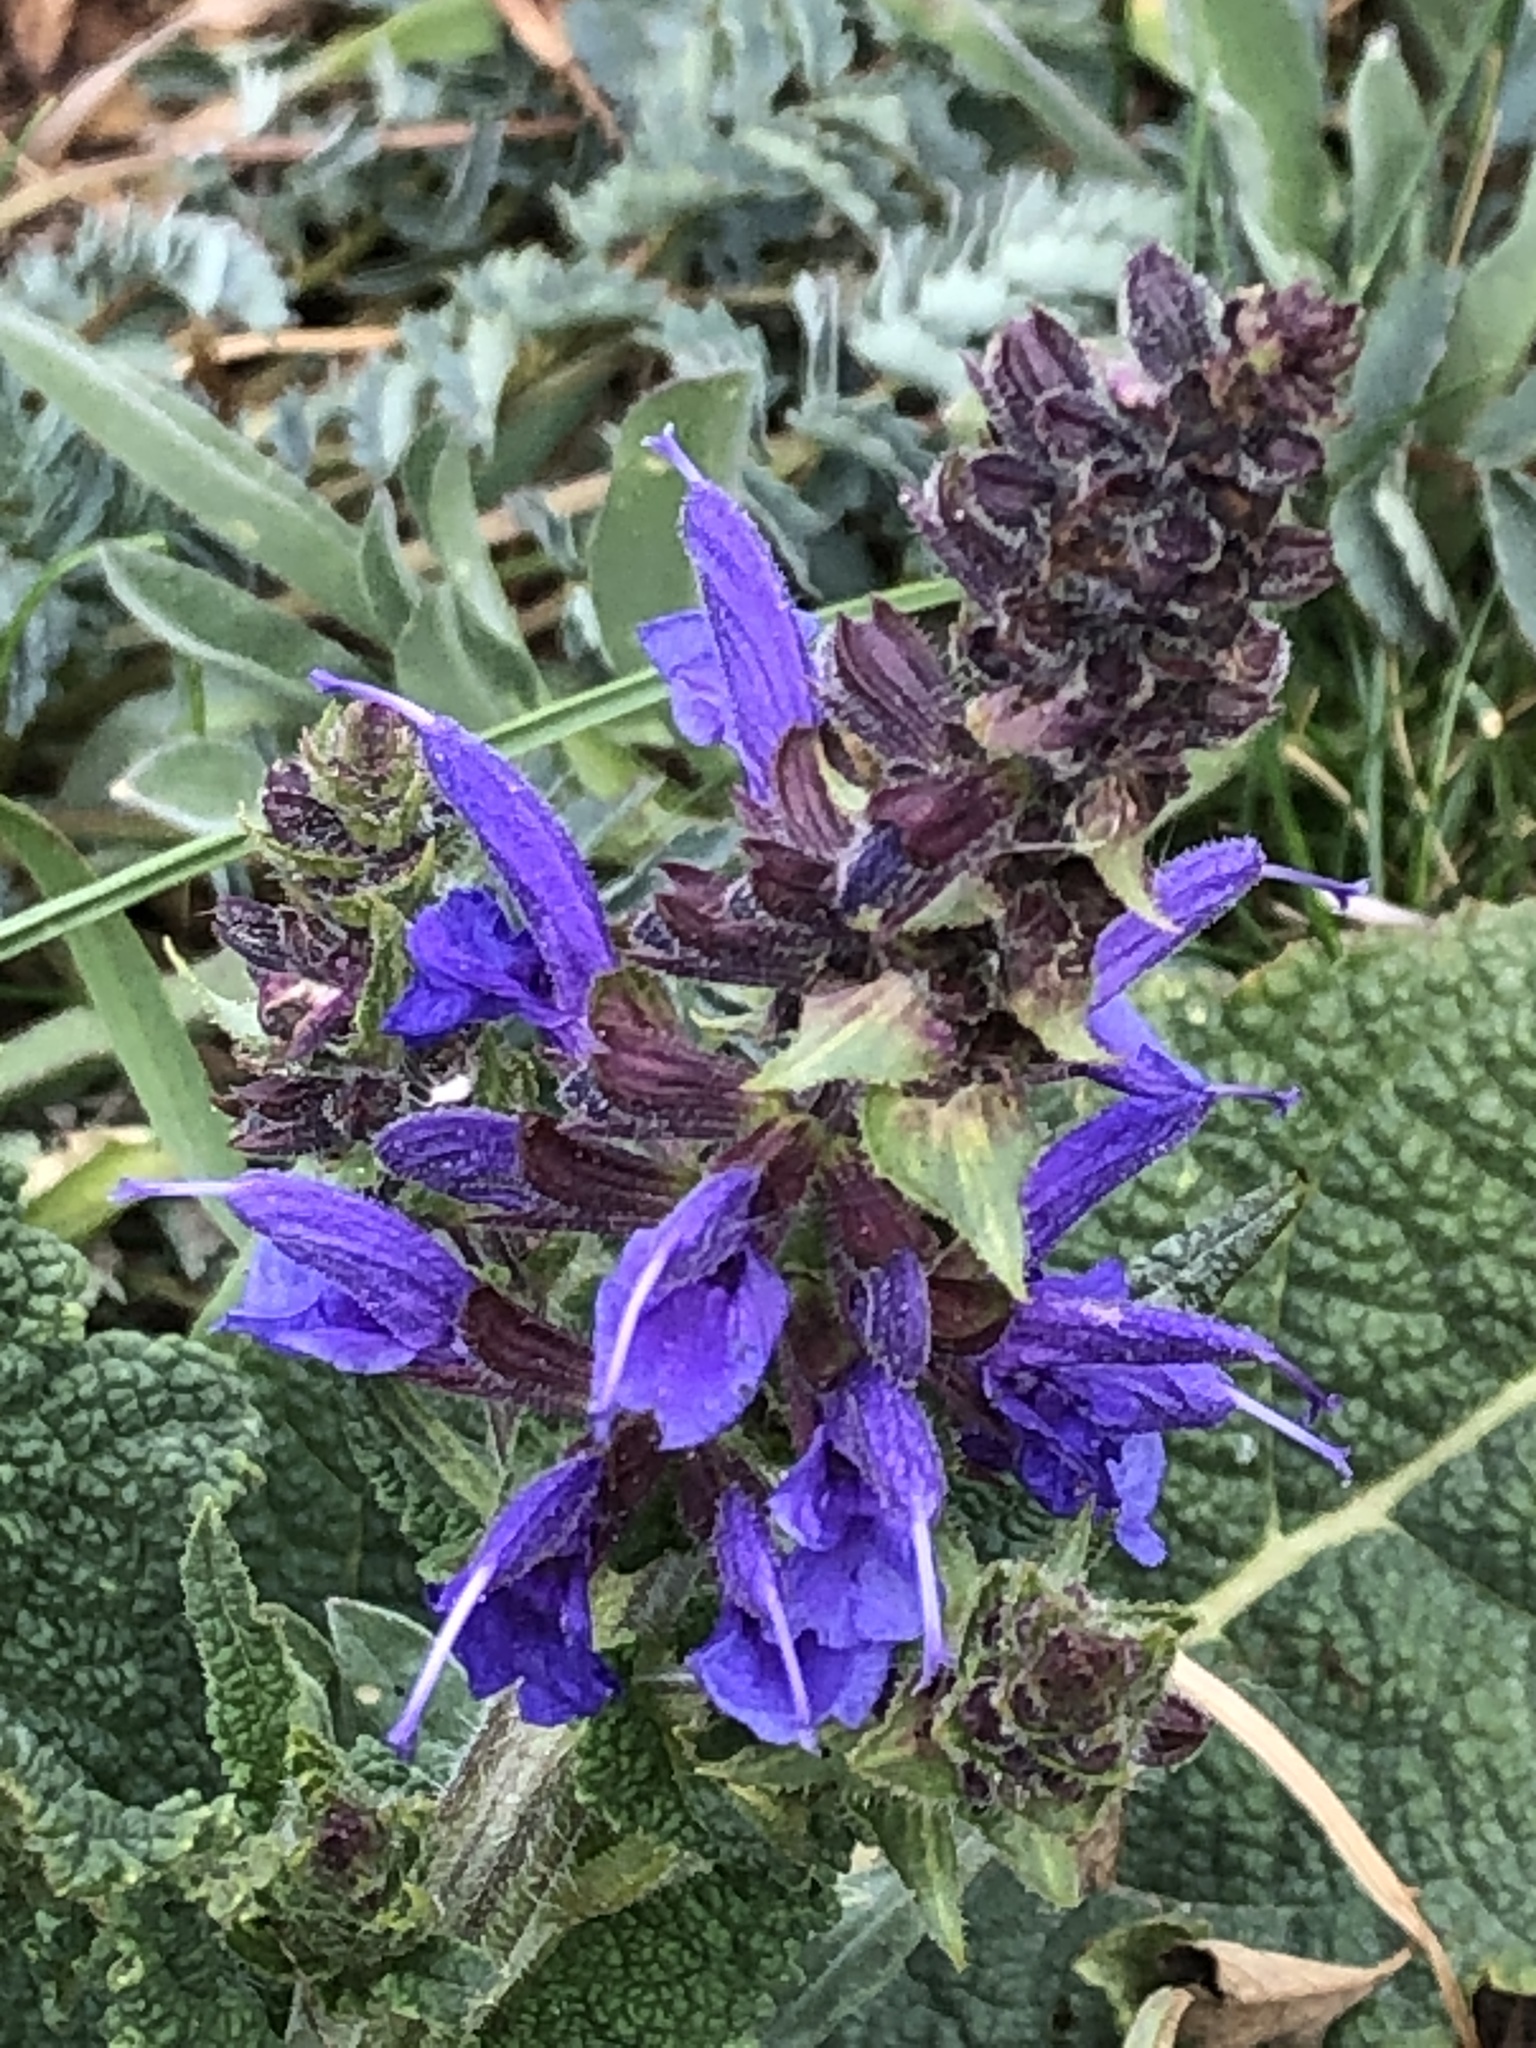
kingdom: Plantae
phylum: Tracheophyta
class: Magnoliopsida
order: Lamiales
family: Lamiaceae
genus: Salvia
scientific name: Salvia pratensis
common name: Meadow sage
